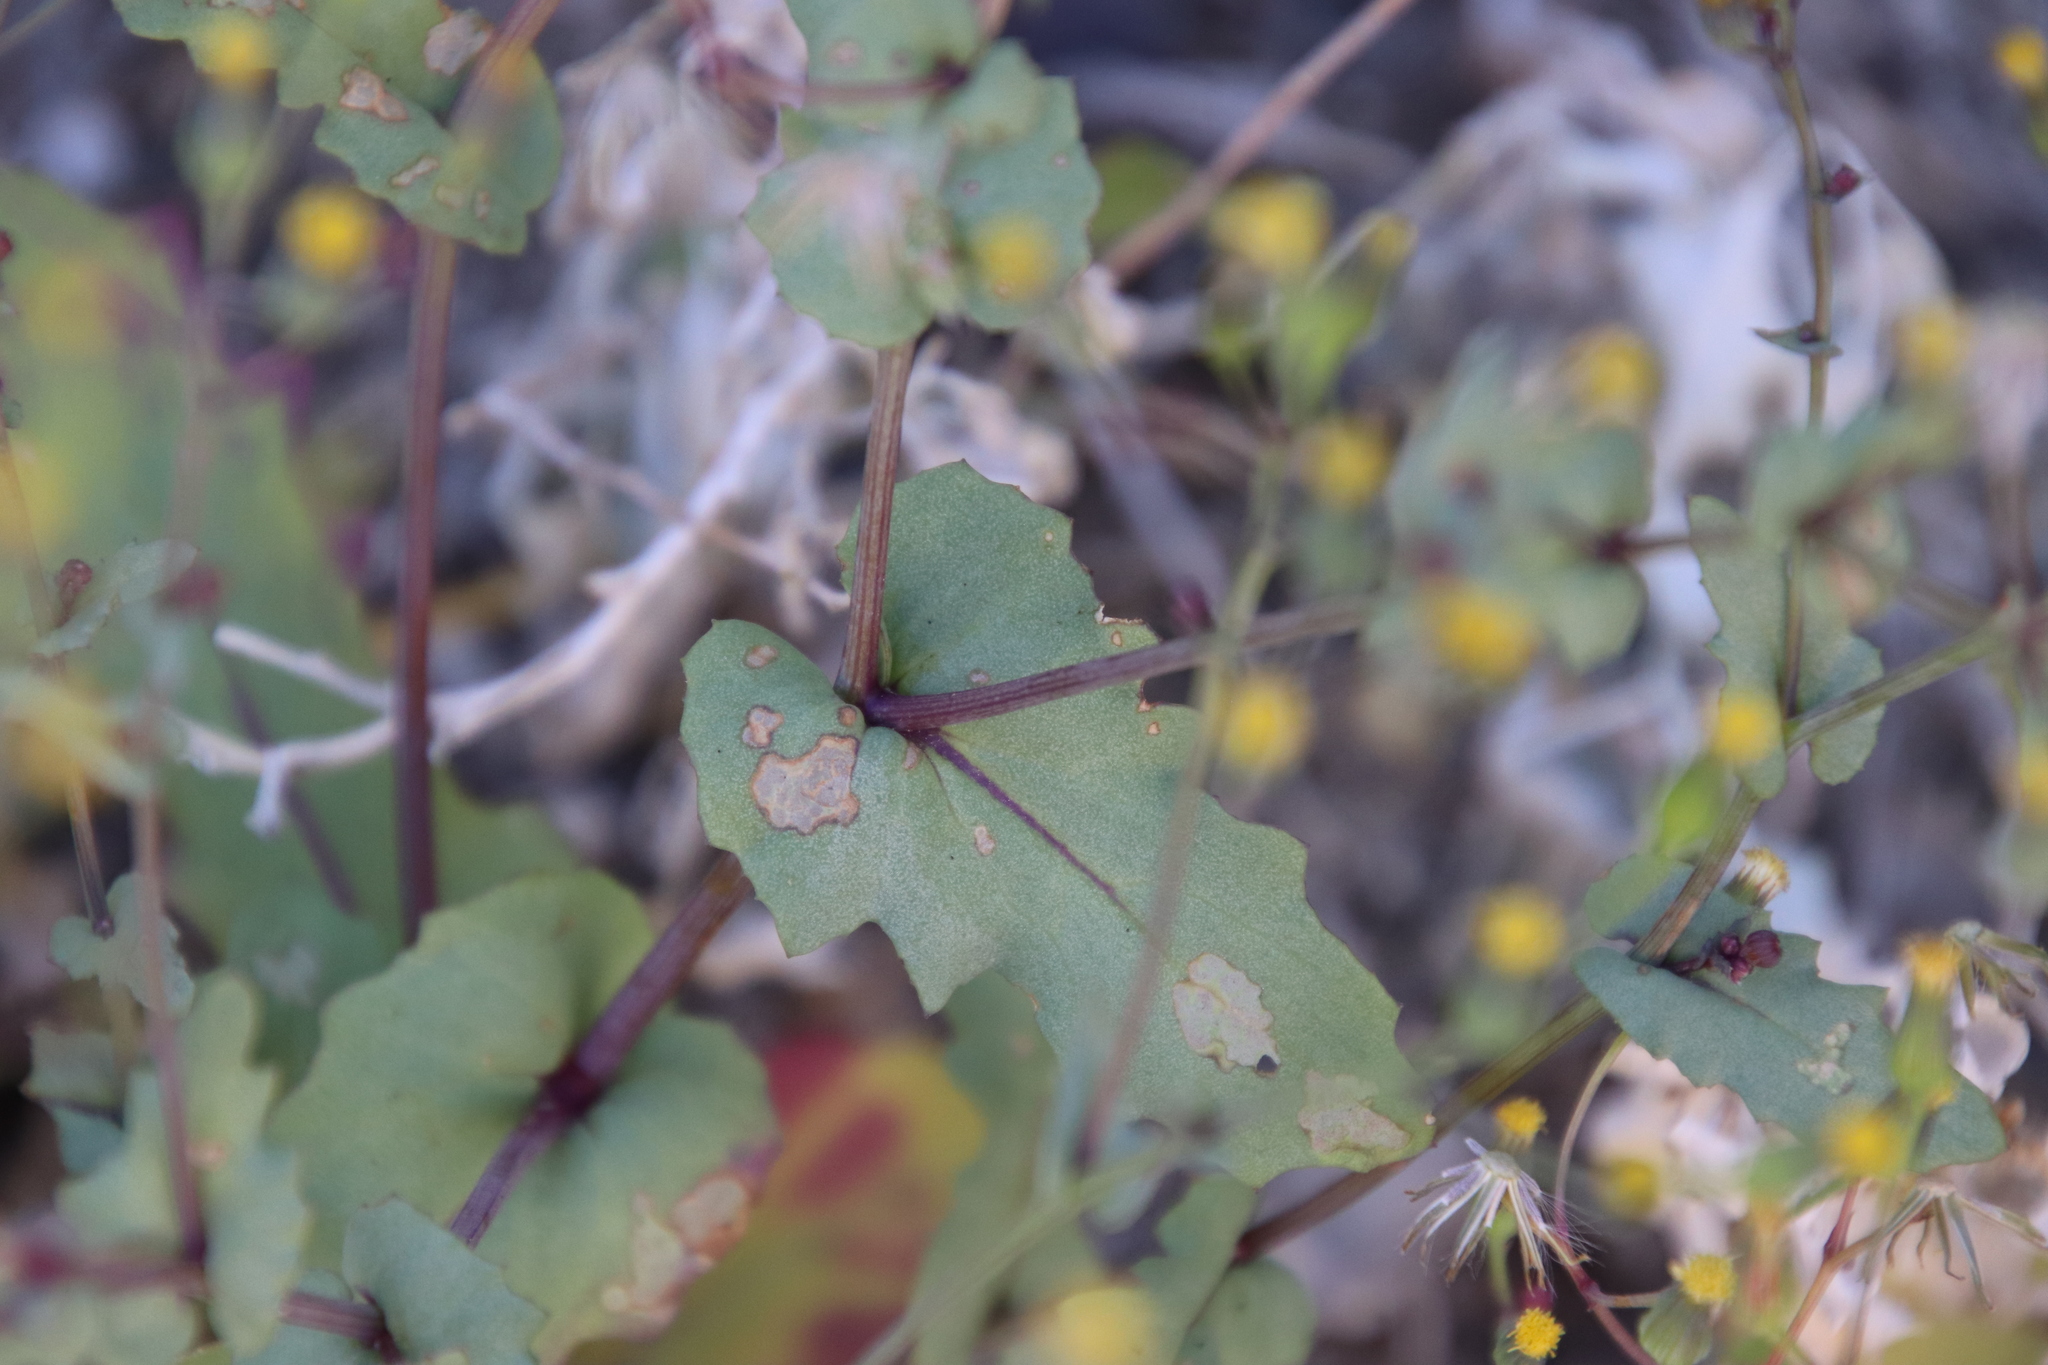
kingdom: Plantae
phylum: Tracheophyta
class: Magnoliopsida
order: Asterales
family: Asteraceae
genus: Senecio
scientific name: Senecio mohavensis
